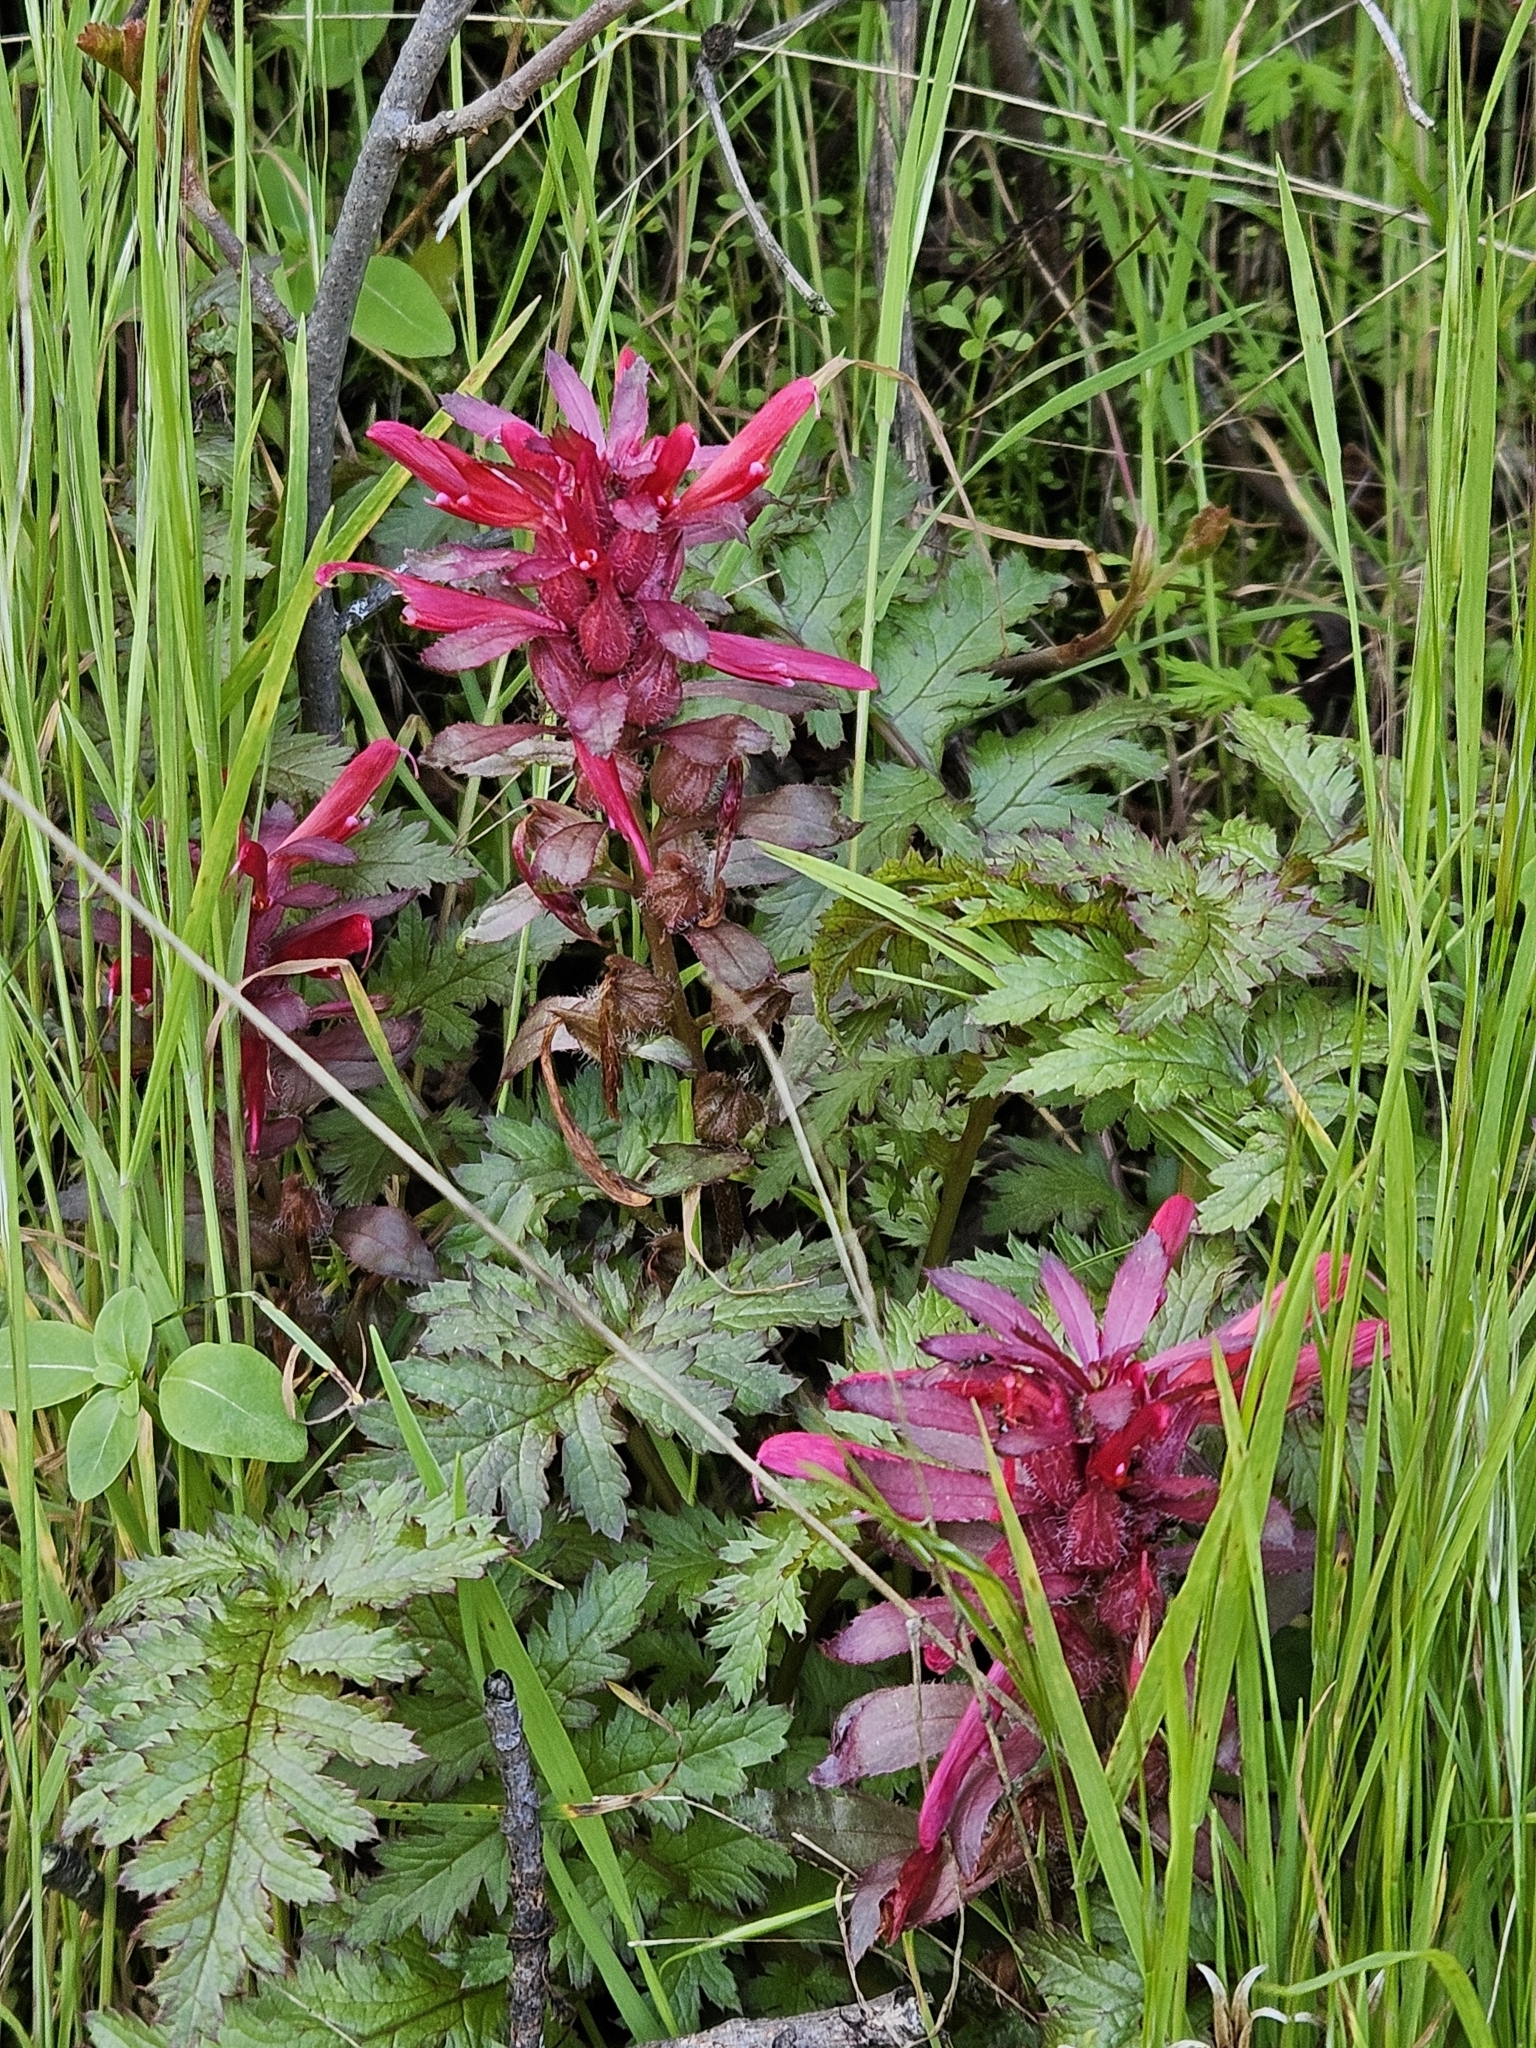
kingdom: Plantae
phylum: Tracheophyta
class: Magnoliopsida
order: Lamiales
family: Orobanchaceae
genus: Pedicularis
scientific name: Pedicularis densiflora
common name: Indian warrior
